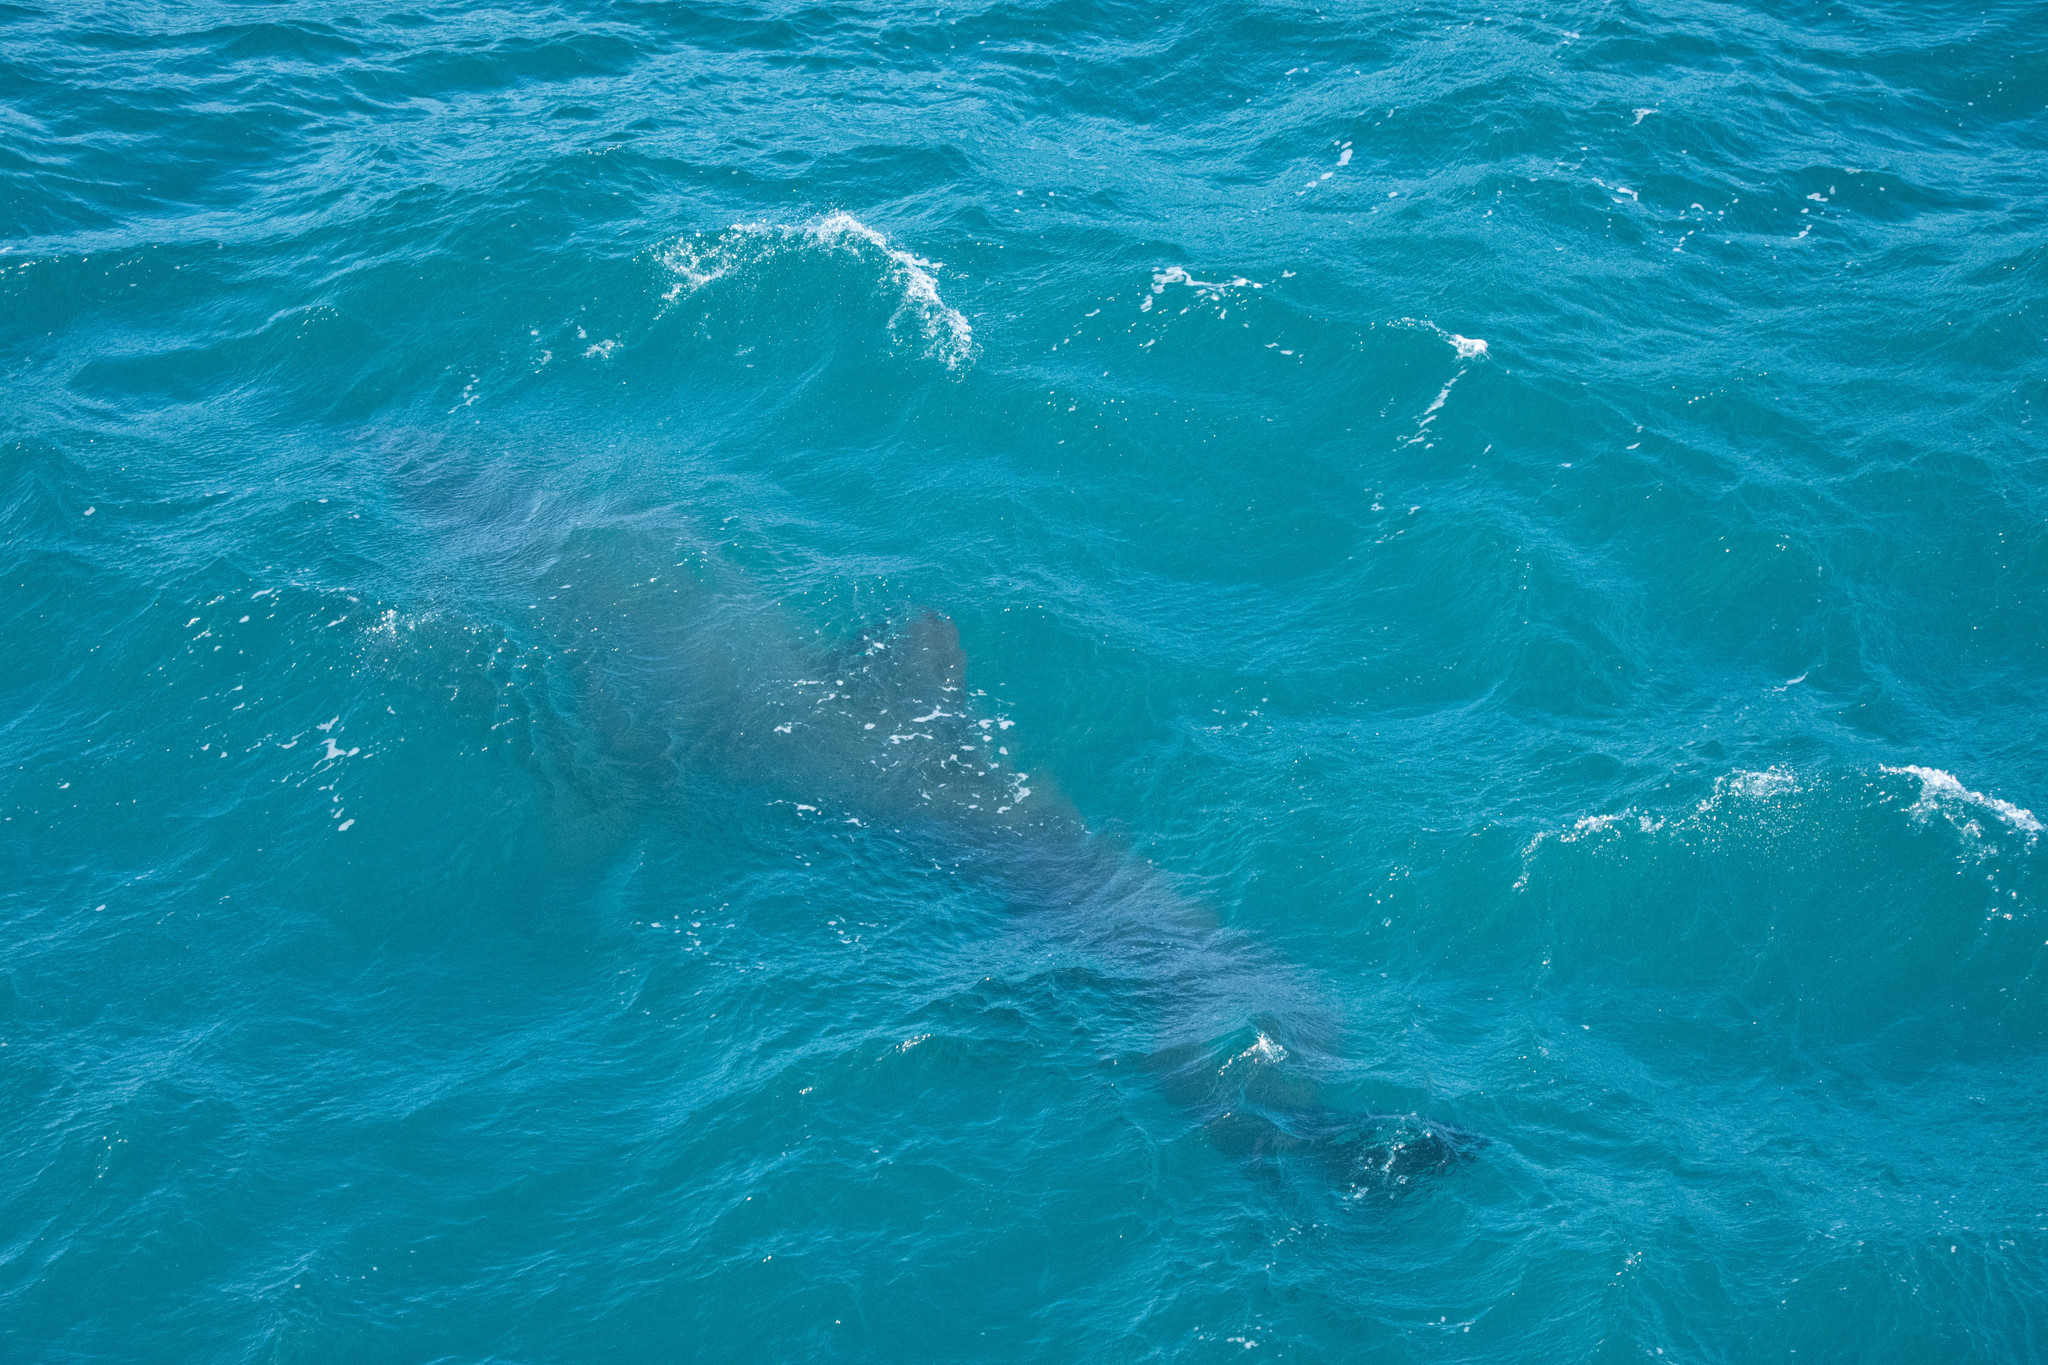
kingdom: Animalia
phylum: Chordata
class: Elasmobranchii
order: Lamniformes
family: Cetorhinidae
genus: Cetorhinus
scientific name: Cetorhinus maximus
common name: Basking shark
